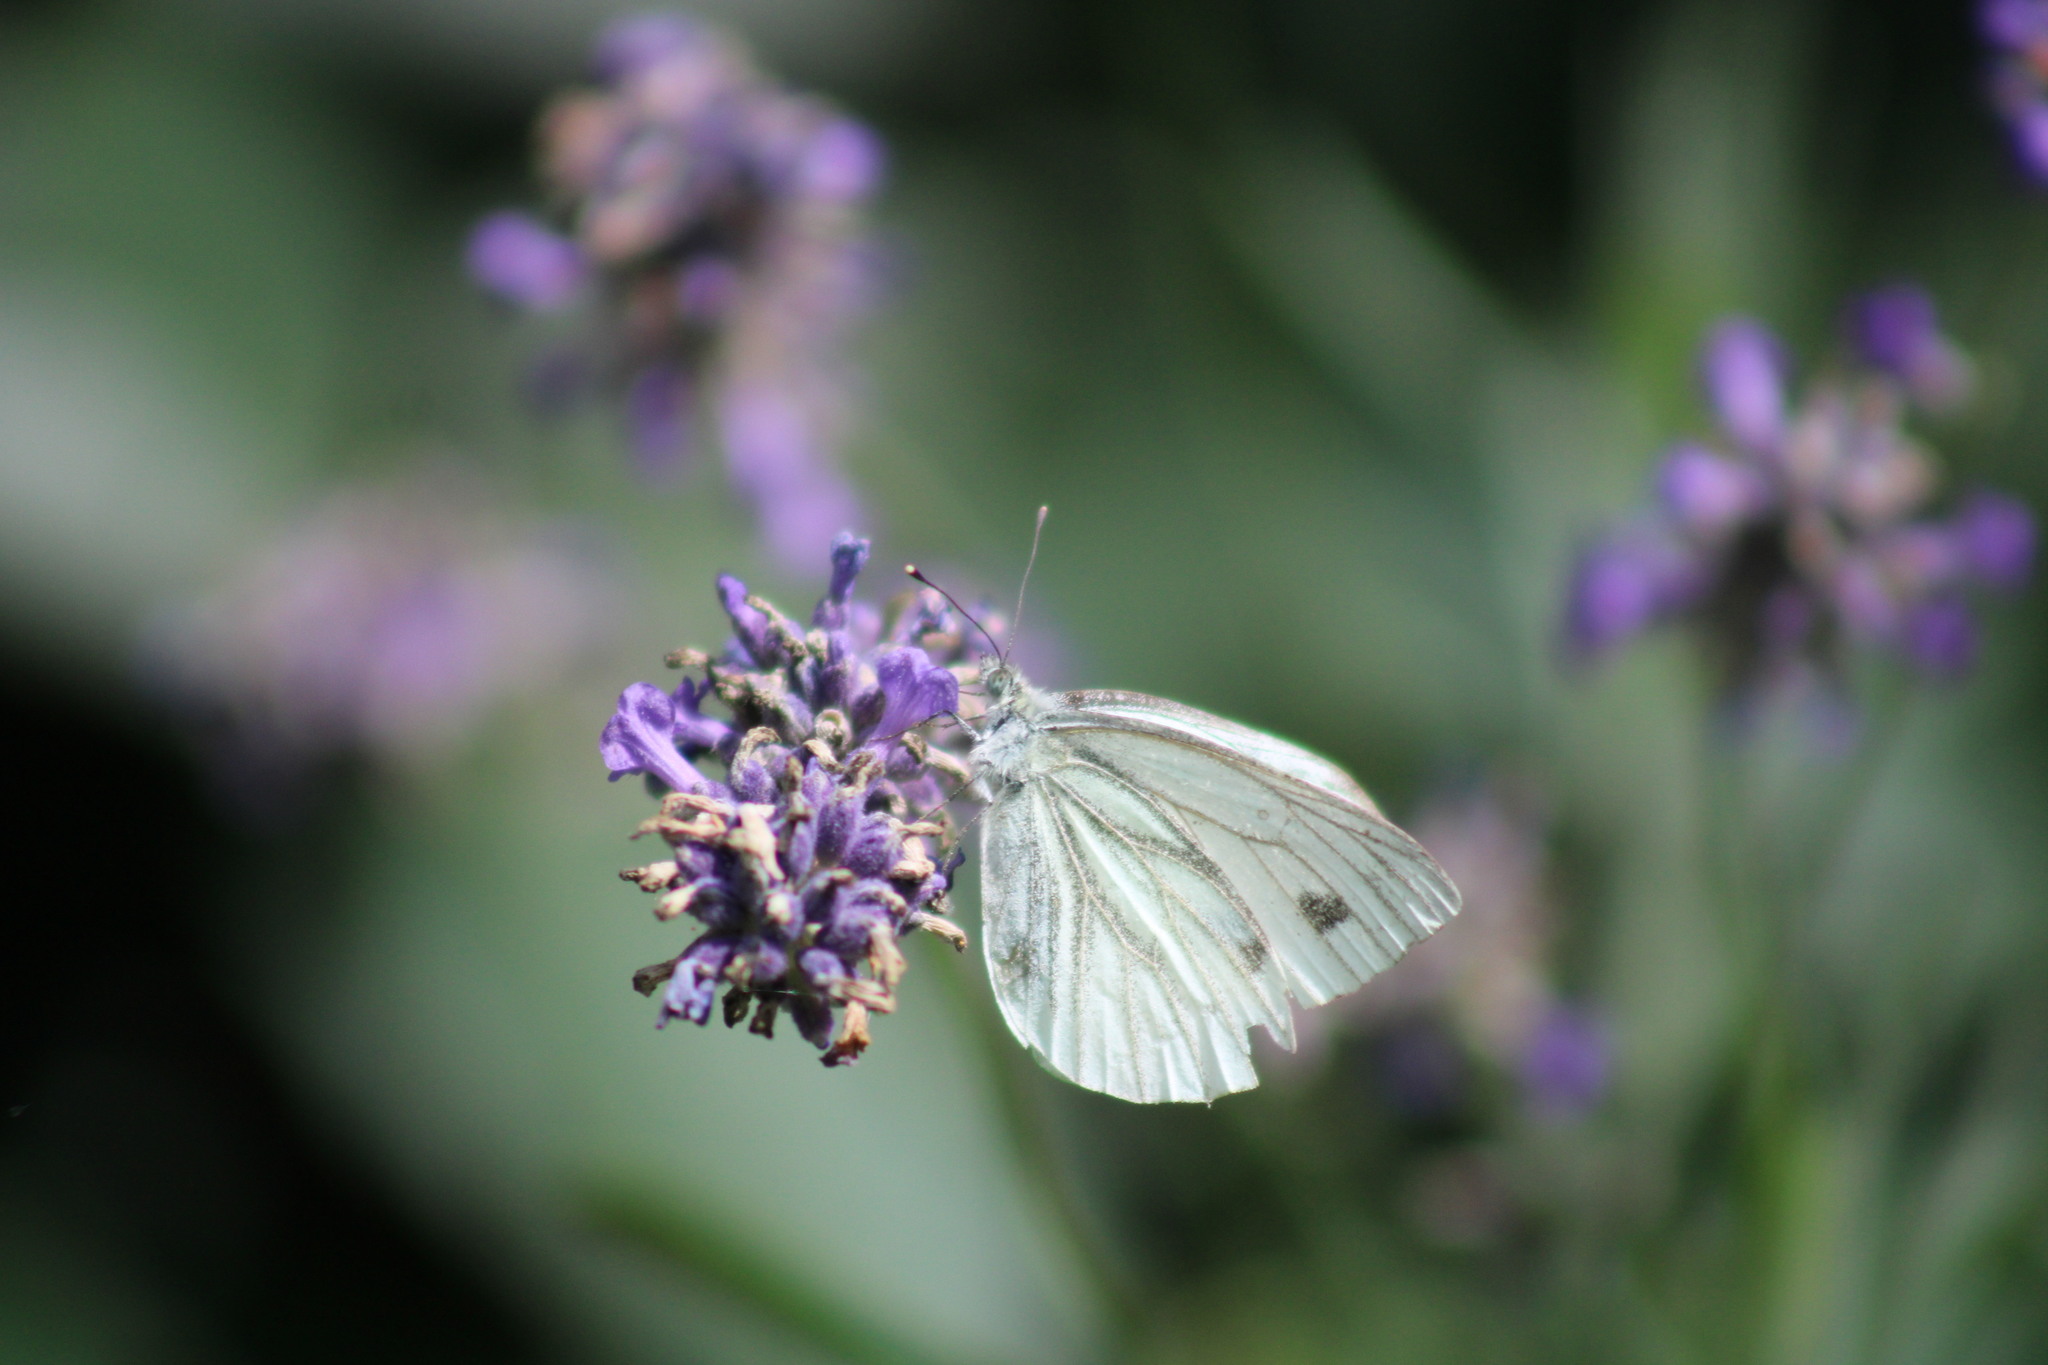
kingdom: Animalia
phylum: Arthropoda
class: Insecta
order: Lepidoptera
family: Pieridae
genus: Pieris
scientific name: Pieris napi
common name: Green-veined white
